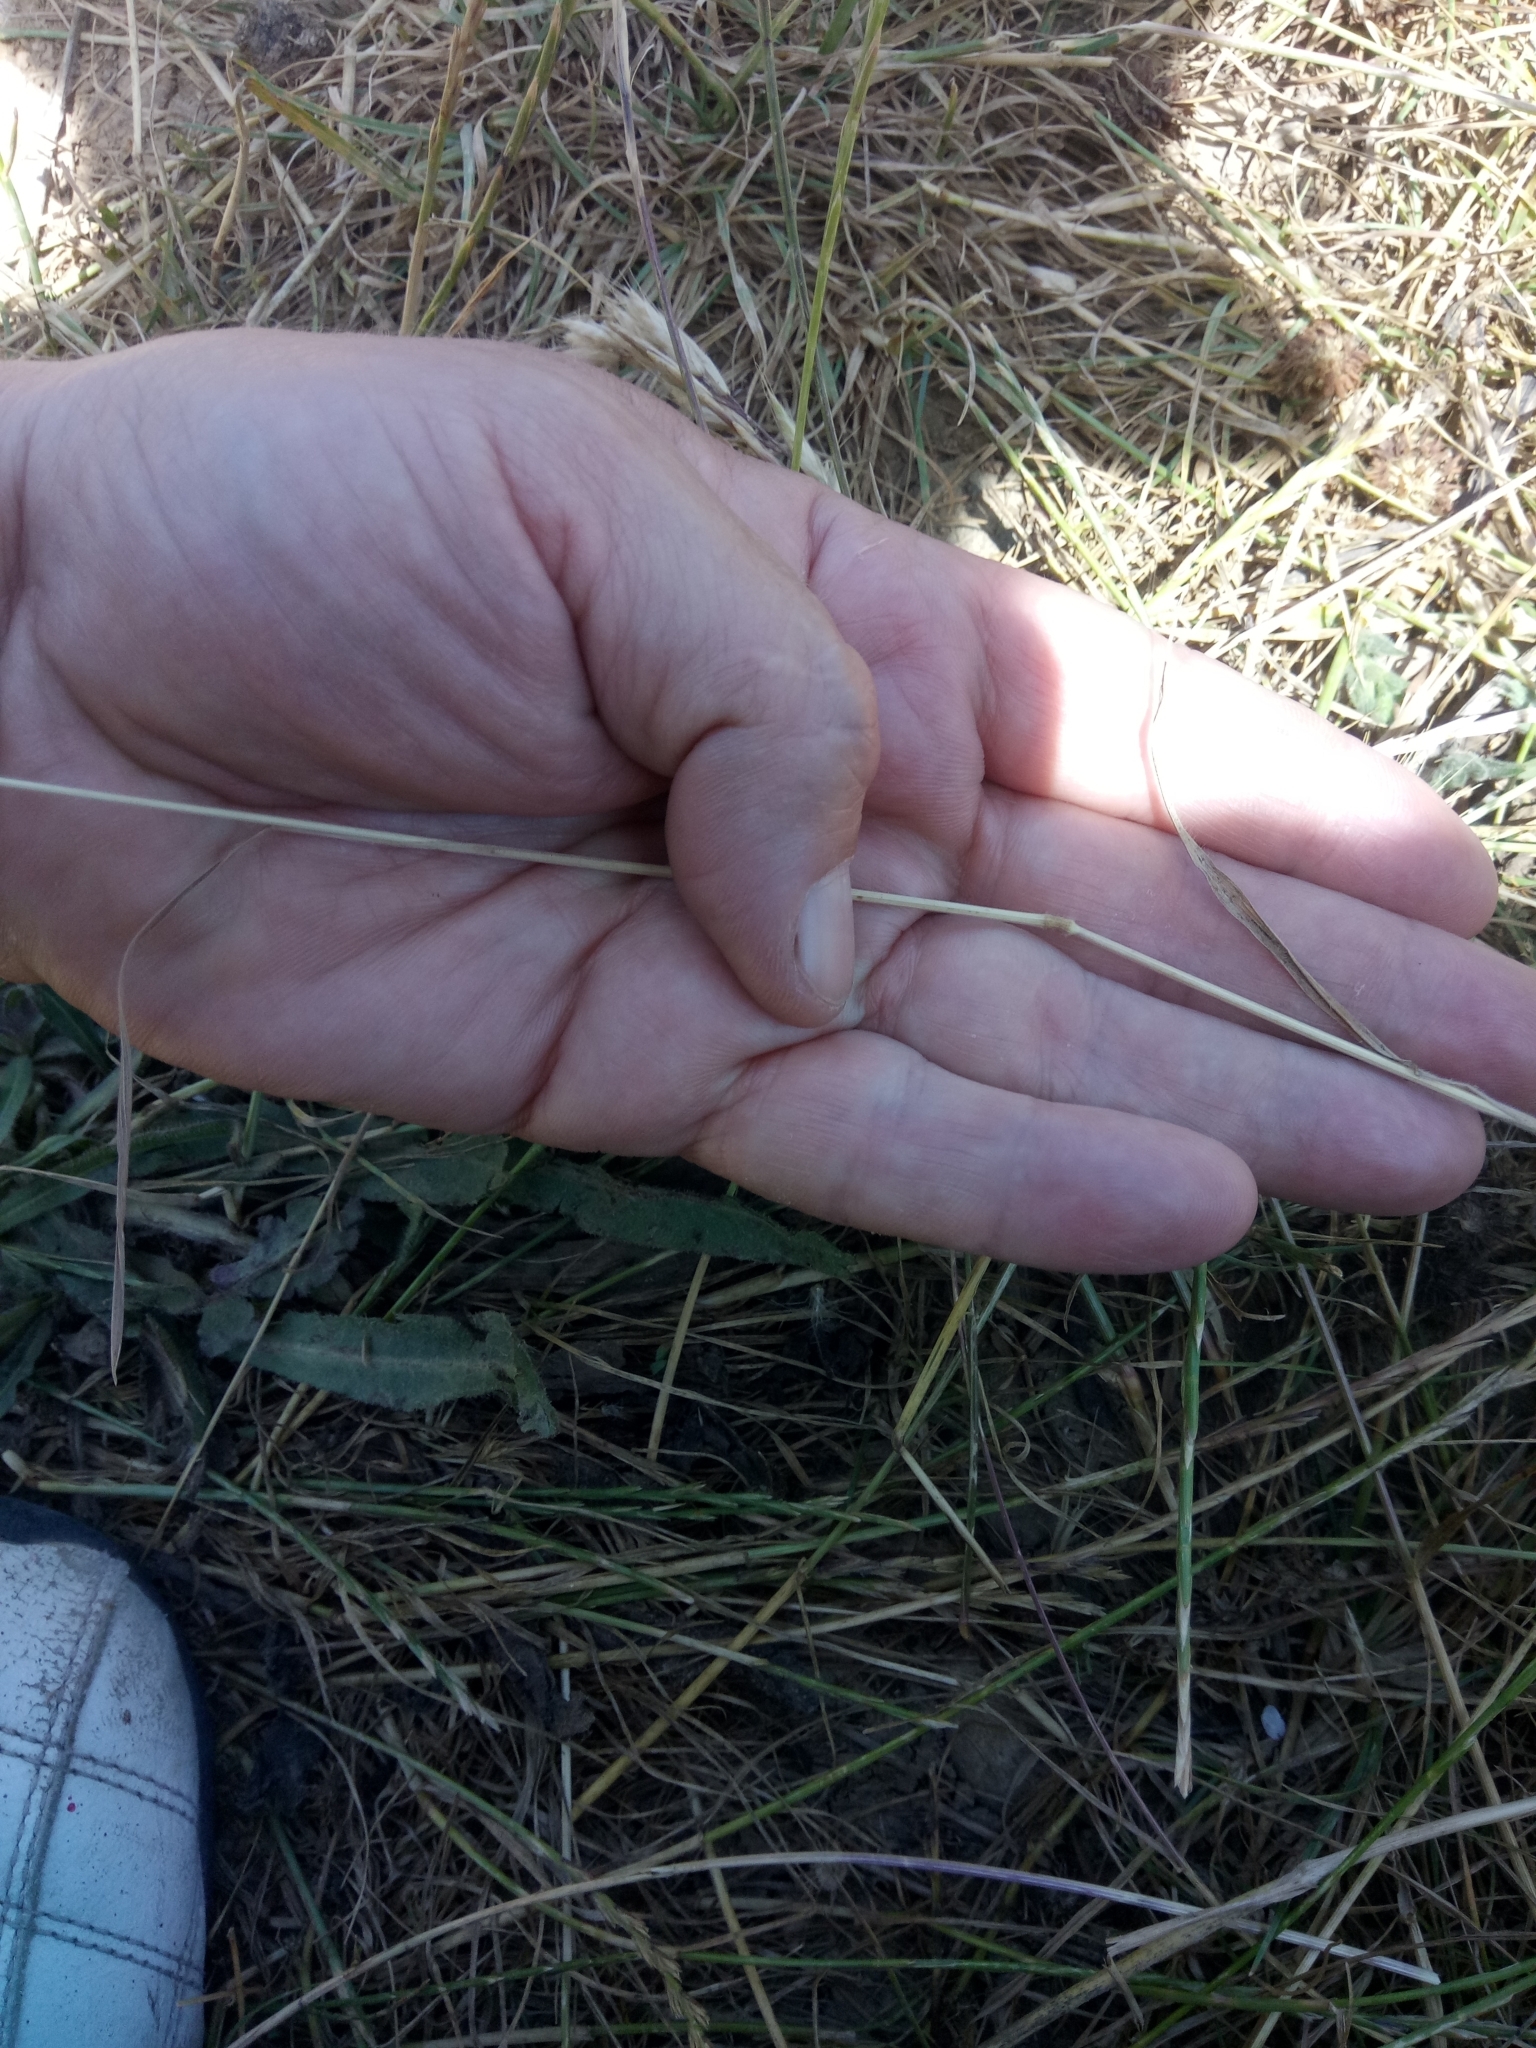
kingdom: Plantae
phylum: Tracheophyta
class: Liliopsida
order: Poales
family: Poaceae
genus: Bromus
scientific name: Bromus hordeaceus
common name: Soft brome
